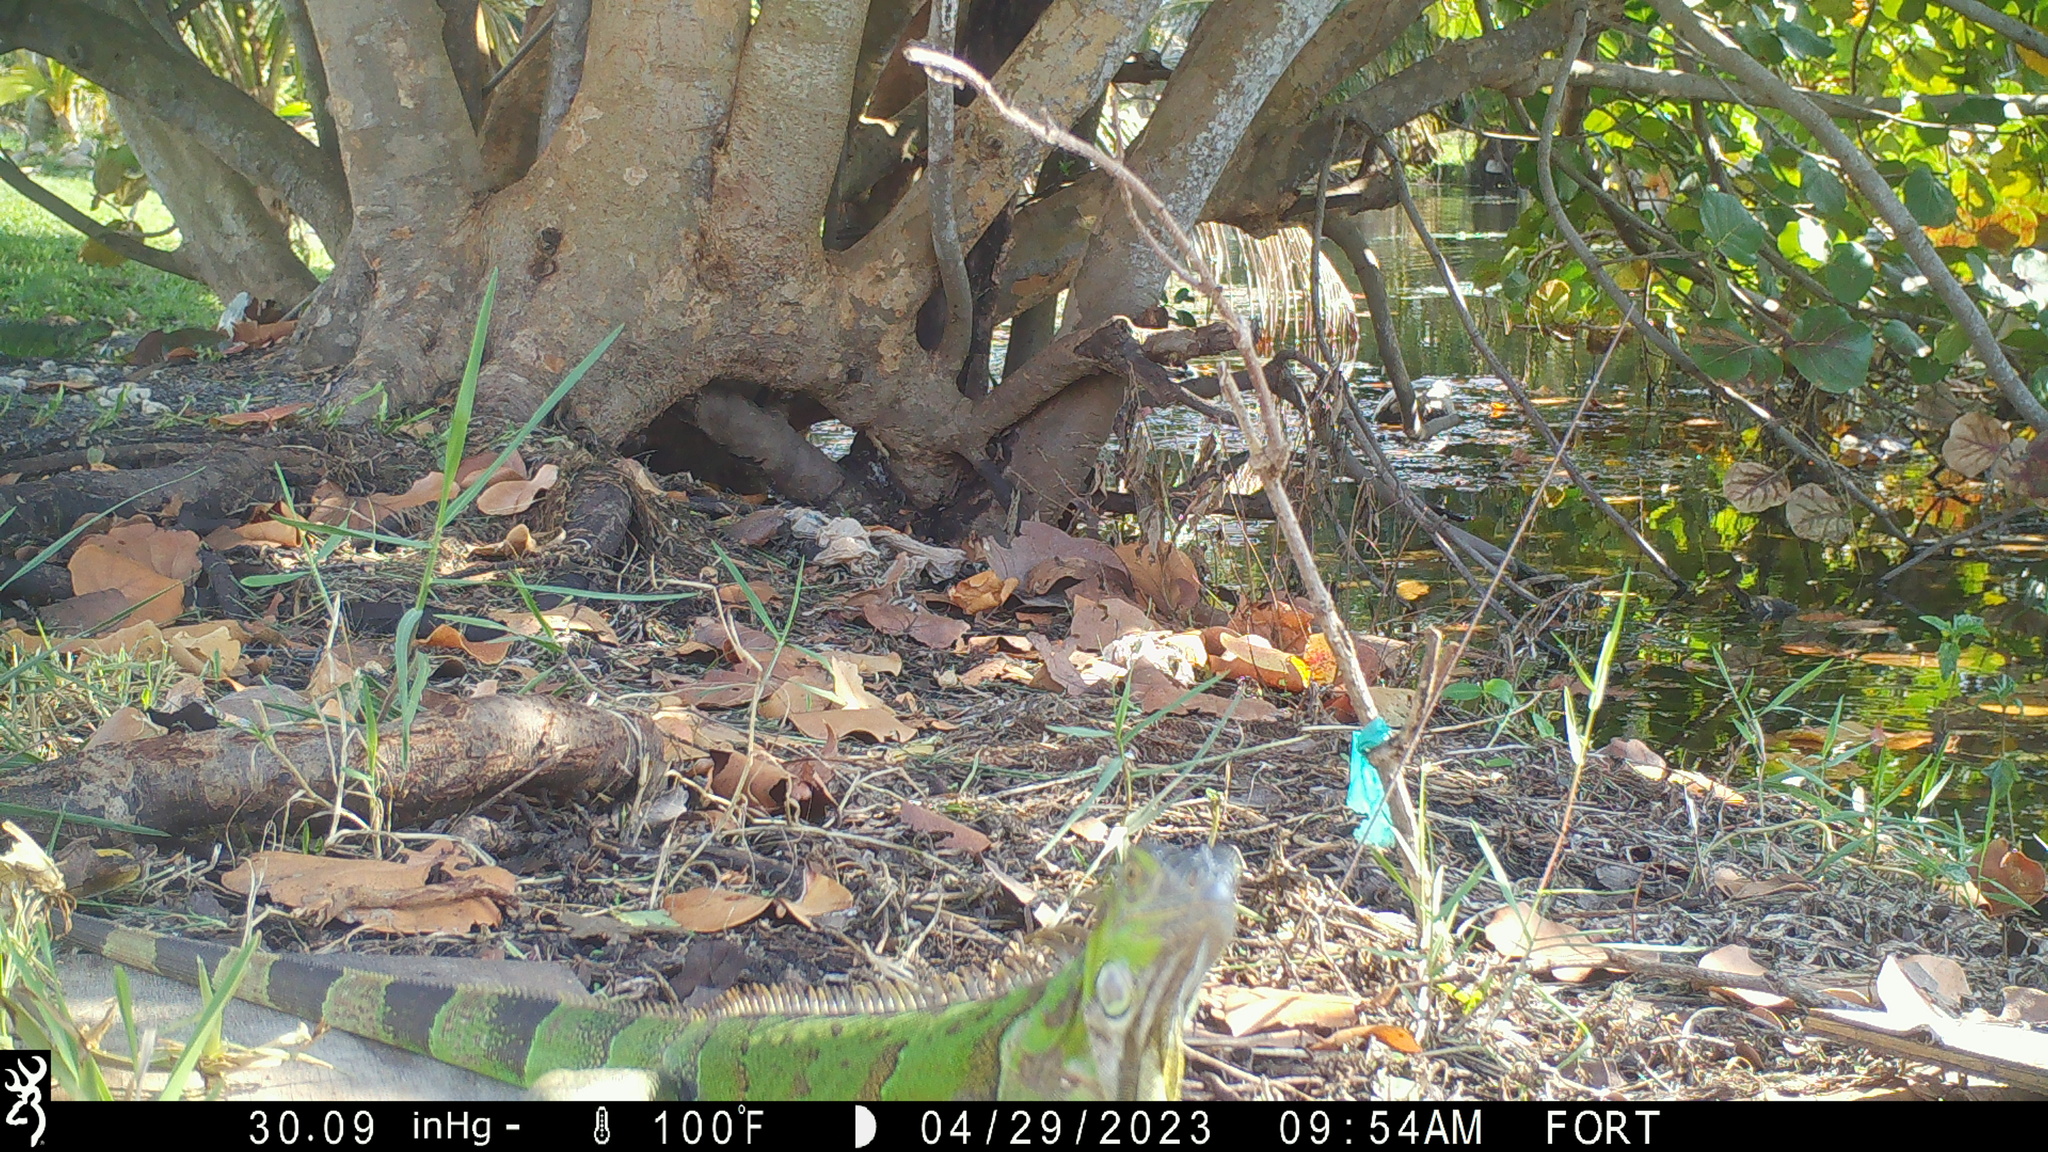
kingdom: Animalia
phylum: Chordata
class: Squamata
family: Iguanidae
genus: Iguana
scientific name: Iguana iguana
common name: Green iguana
